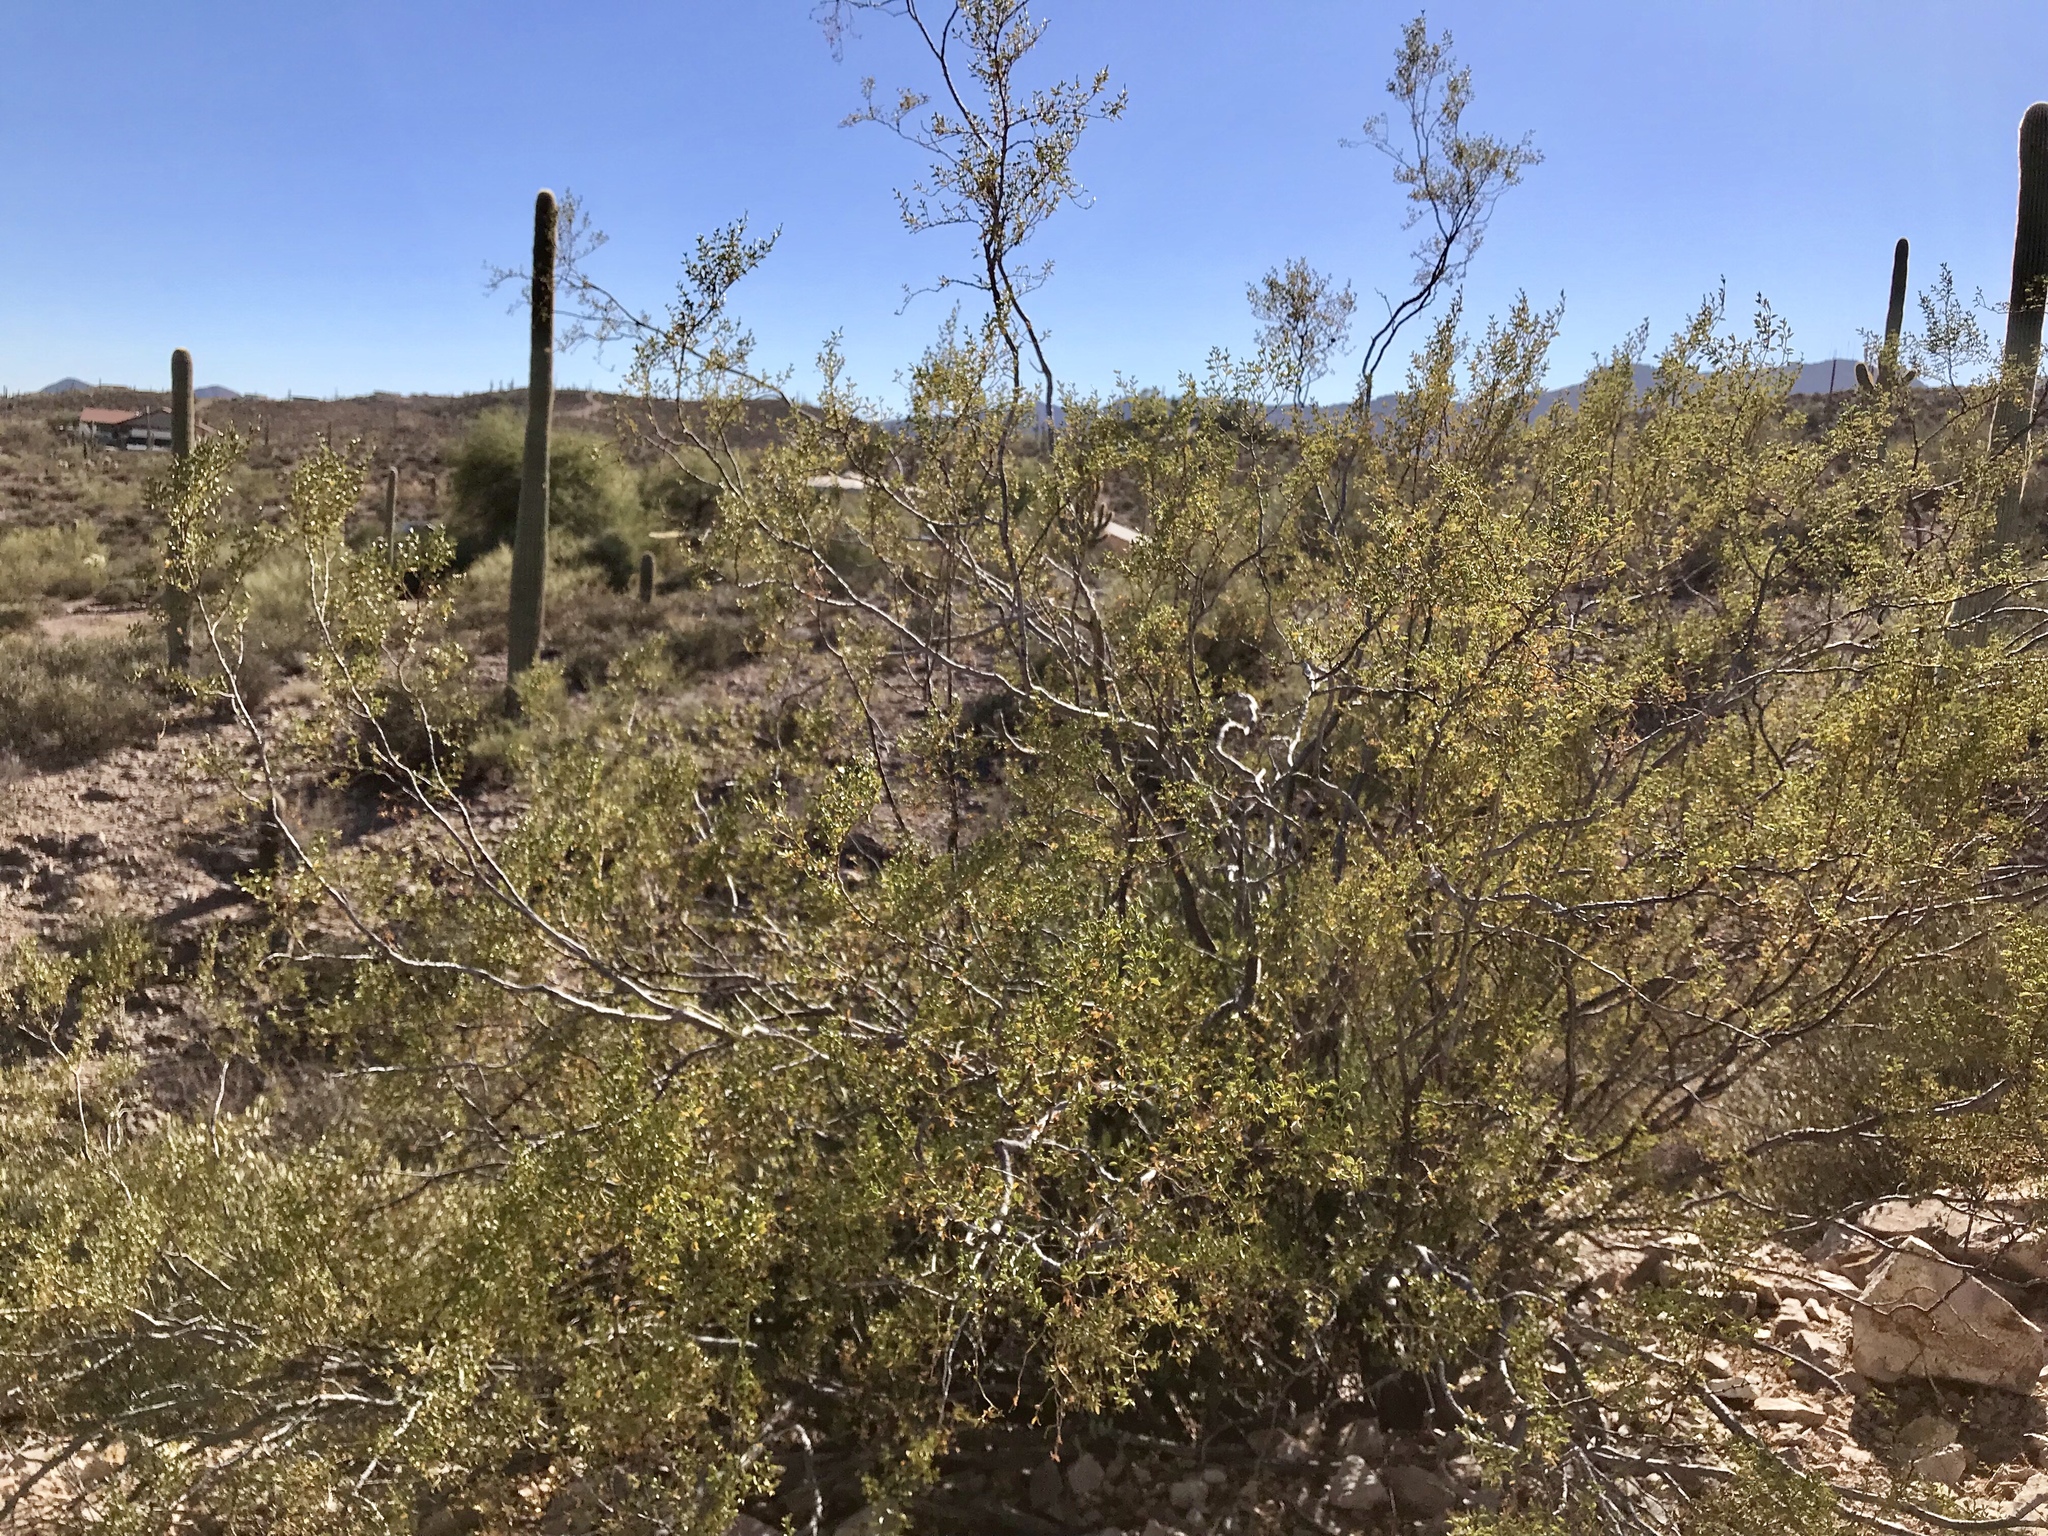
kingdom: Plantae
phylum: Tracheophyta
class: Magnoliopsida
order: Zygophyllales
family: Zygophyllaceae
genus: Larrea
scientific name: Larrea tridentata
